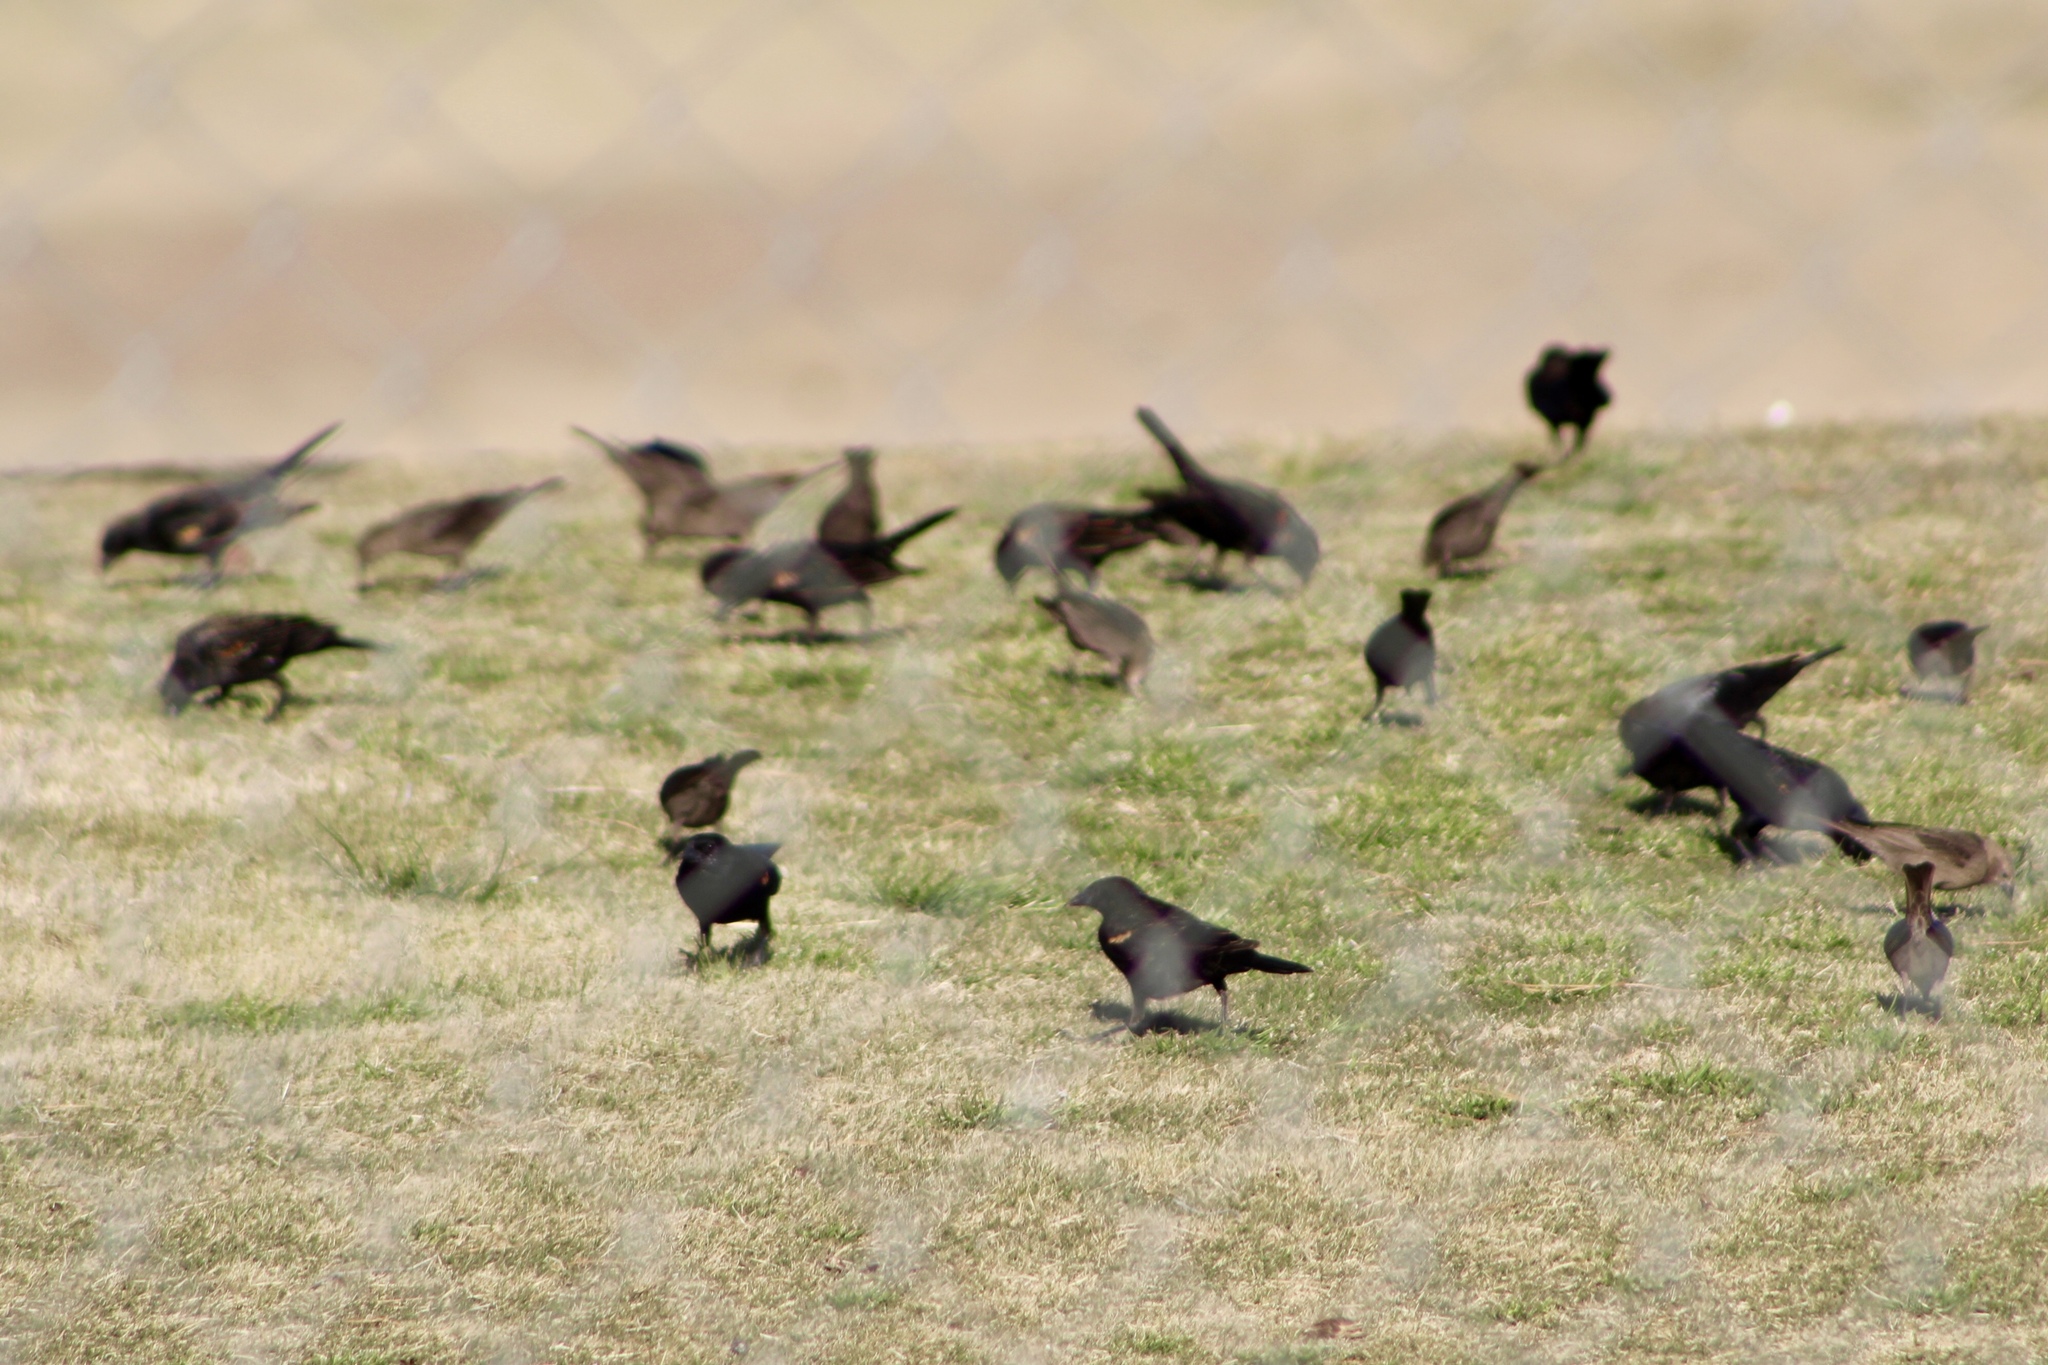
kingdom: Animalia
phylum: Chordata
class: Aves
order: Passeriformes
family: Icteridae
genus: Agelaius
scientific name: Agelaius phoeniceus
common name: Red-winged blackbird
